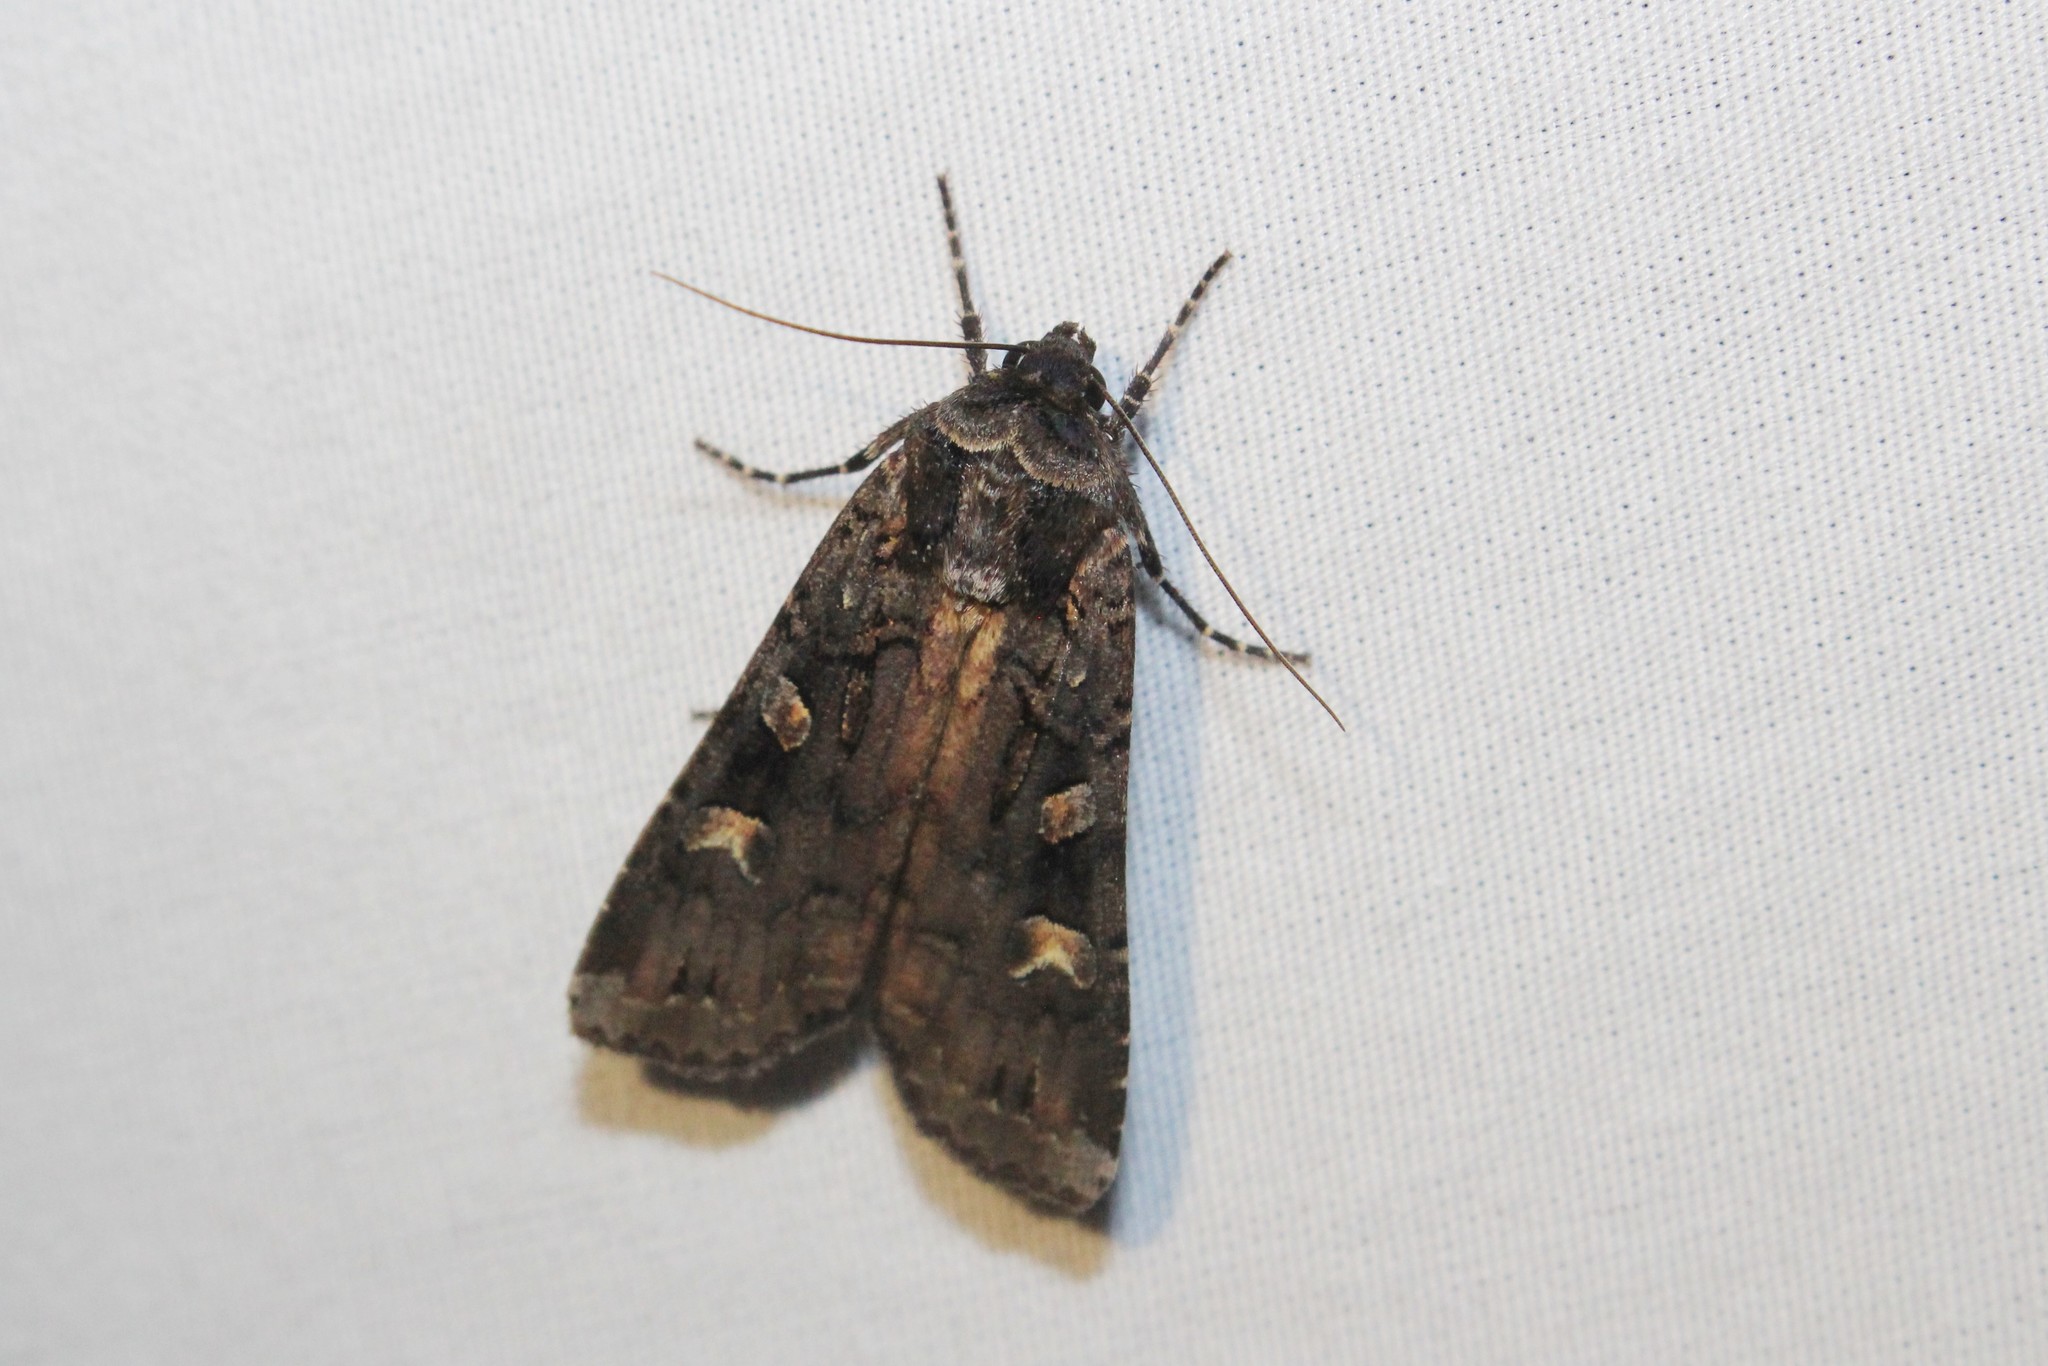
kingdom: Animalia
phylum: Arthropoda
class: Insecta
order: Lepidoptera
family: Noctuidae
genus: Actebia
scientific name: Actebia fennica
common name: Eversmann's rustic
